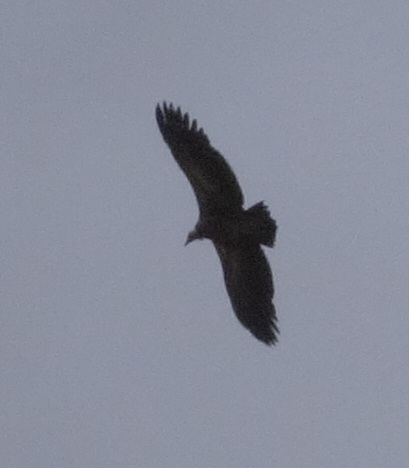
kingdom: Animalia
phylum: Chordata
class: Aves
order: Accipitriformes
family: Accipitridae
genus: Gyps
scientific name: Gyps himalayensis
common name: Himalayan griffon
